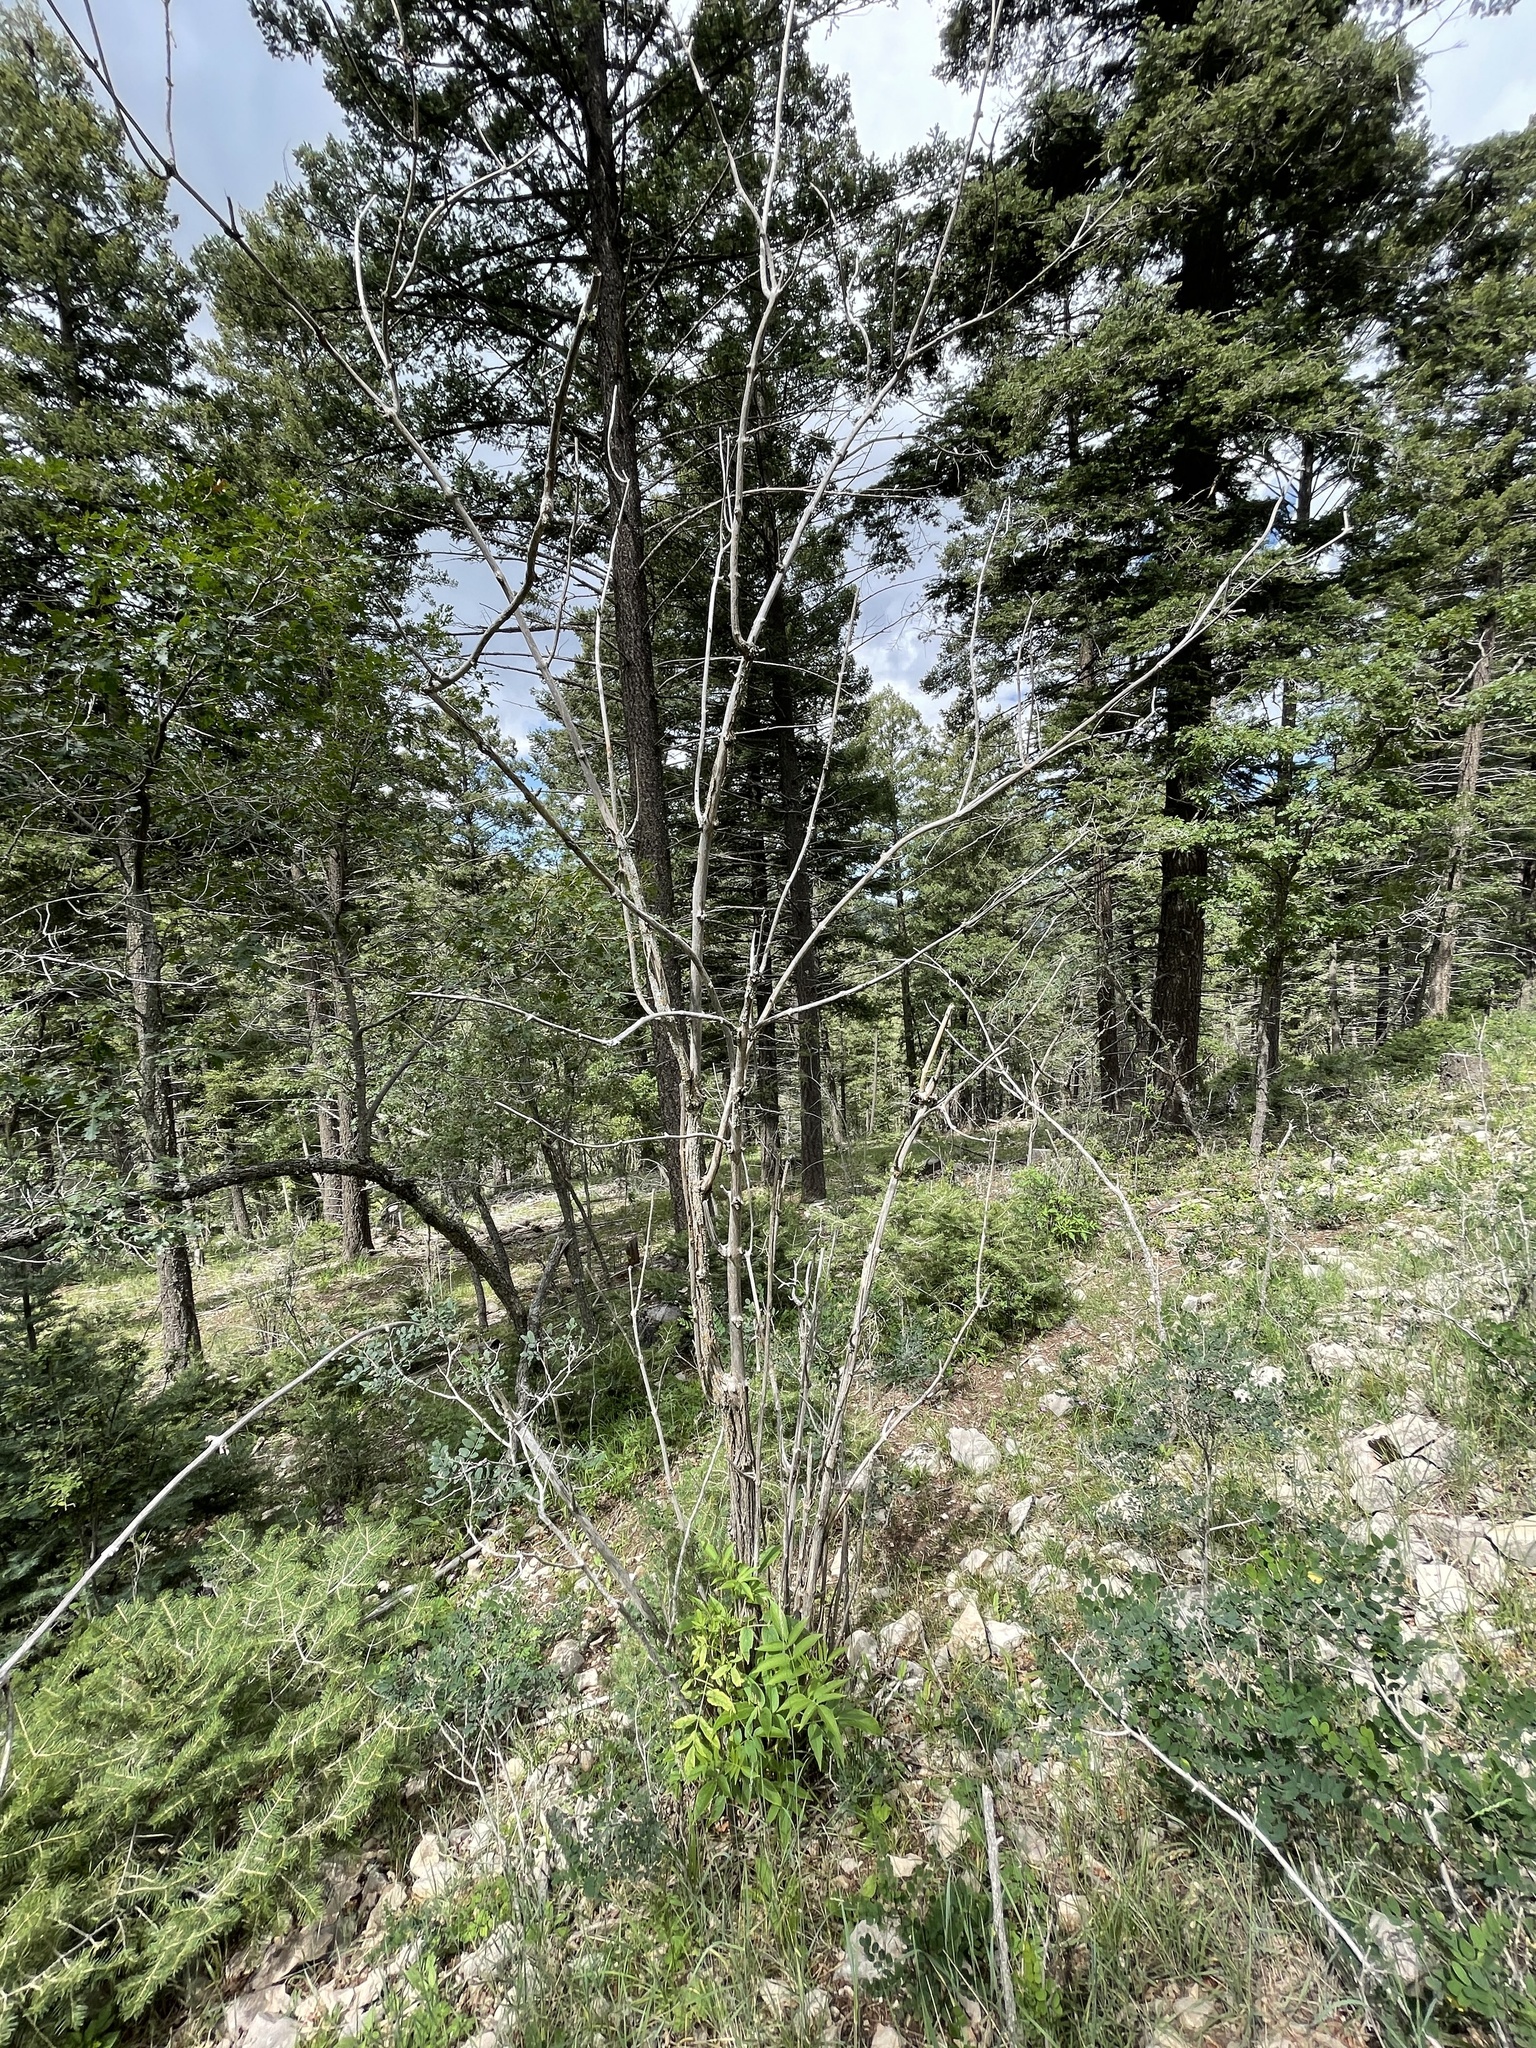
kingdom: Plantae
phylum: Tracheophyta
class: Magnoliopsida
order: Dipsacales
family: Viburnaceae
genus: Sambucus
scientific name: Sambucus cerulea
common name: Blue elder
